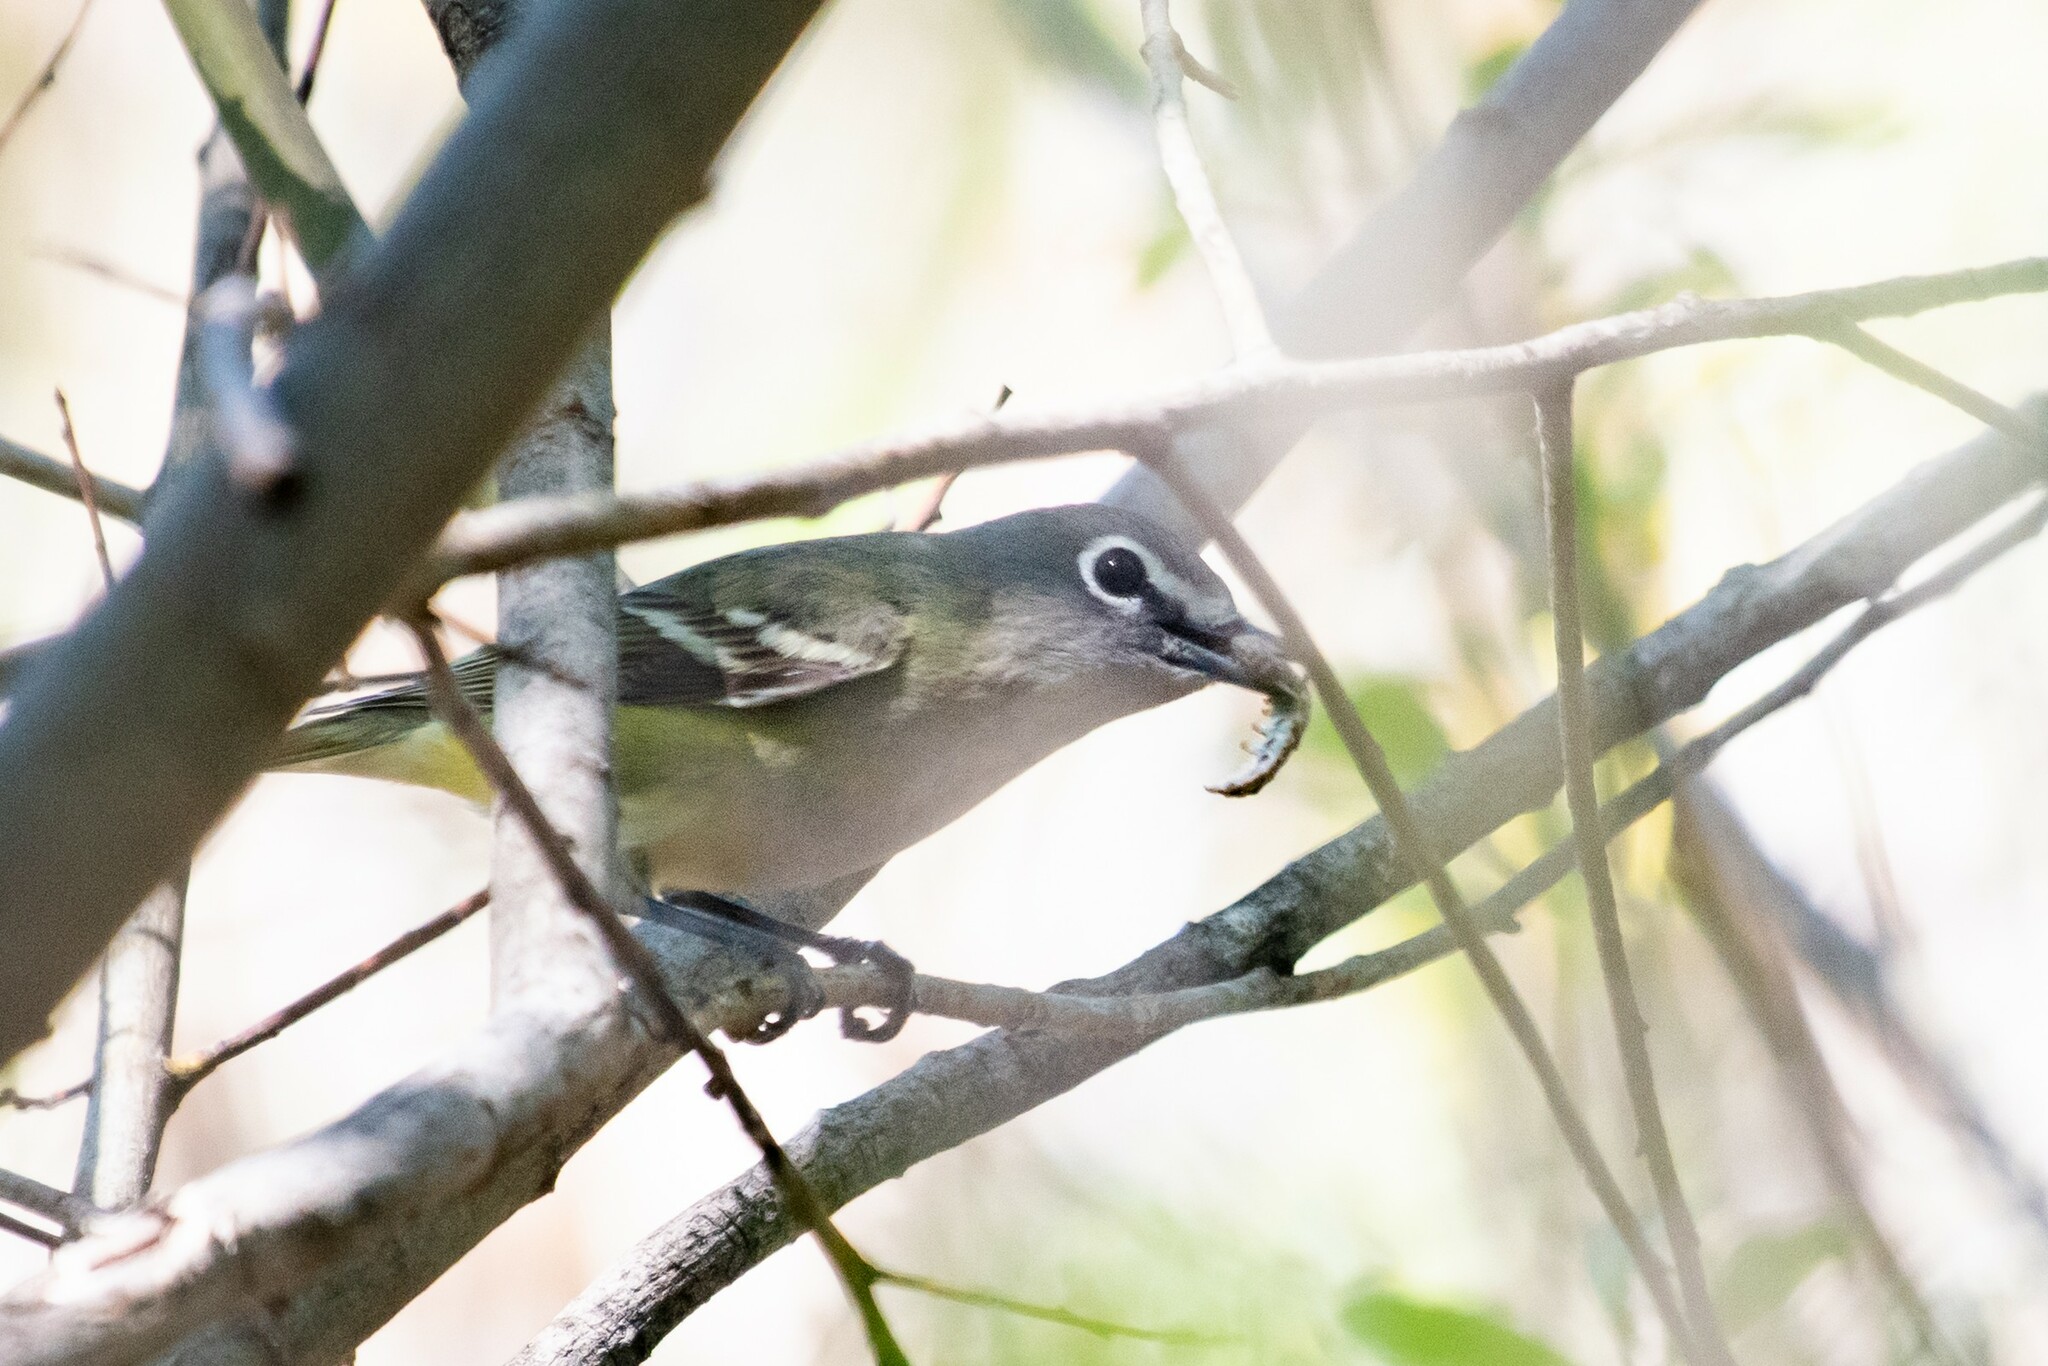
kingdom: Animalia
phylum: Chordata
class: Aves
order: Passeriformes
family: Vireonidae
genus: Vireo
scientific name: Vireo cassinii
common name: Cassin's vireo
